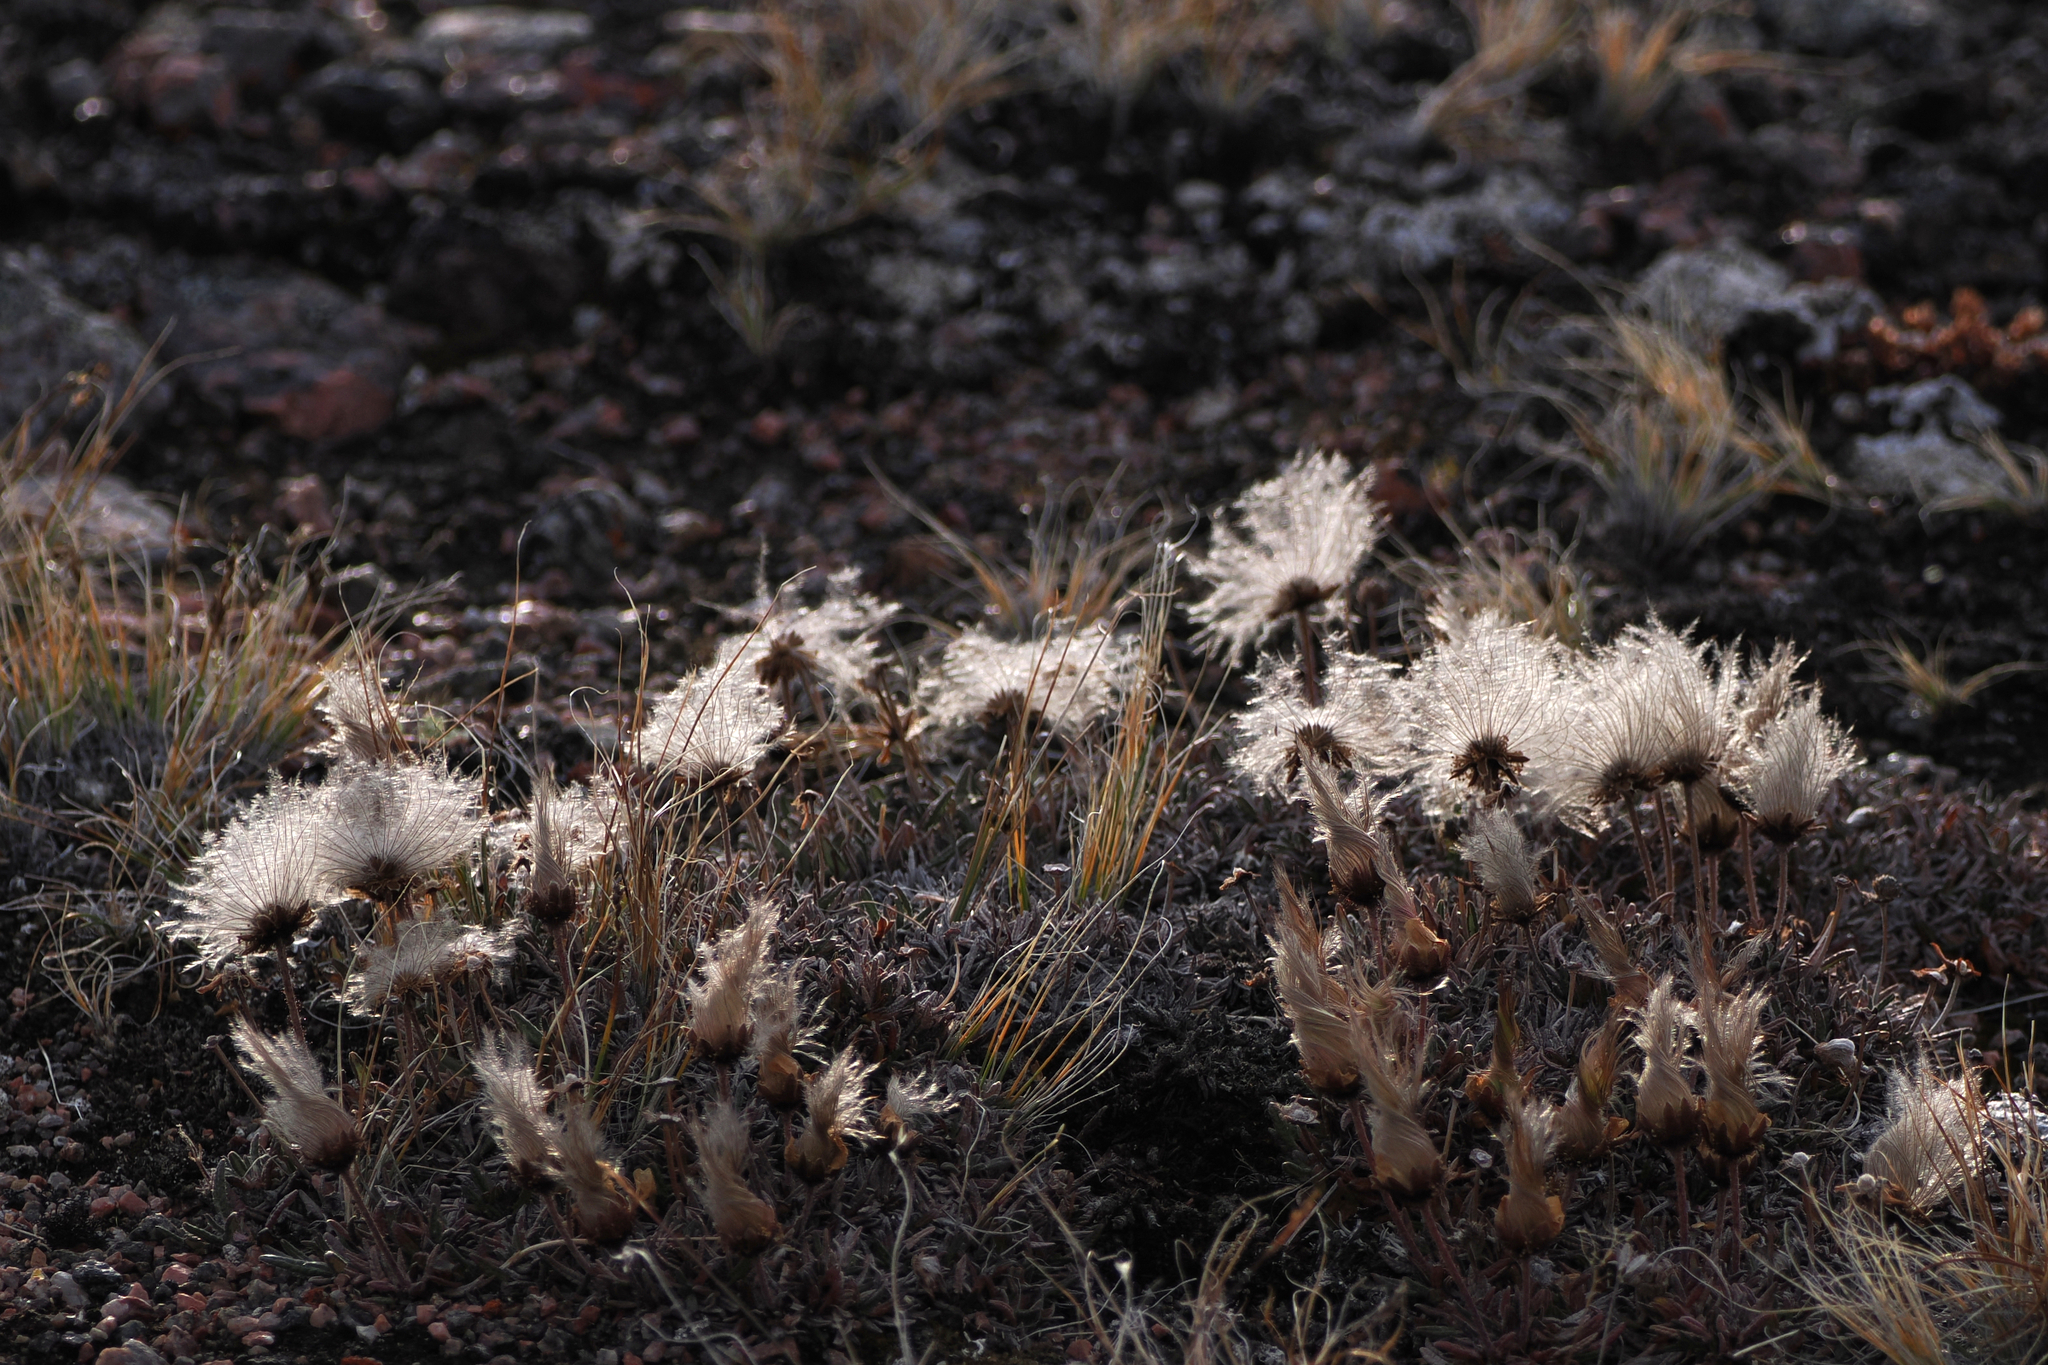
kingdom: Plantae
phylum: Tracheophyta
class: Magnoliopsida
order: Rosales
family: Rosaceae
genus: Dryas
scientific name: Dryas integrifolia
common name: Entire-leaved mountain avens
